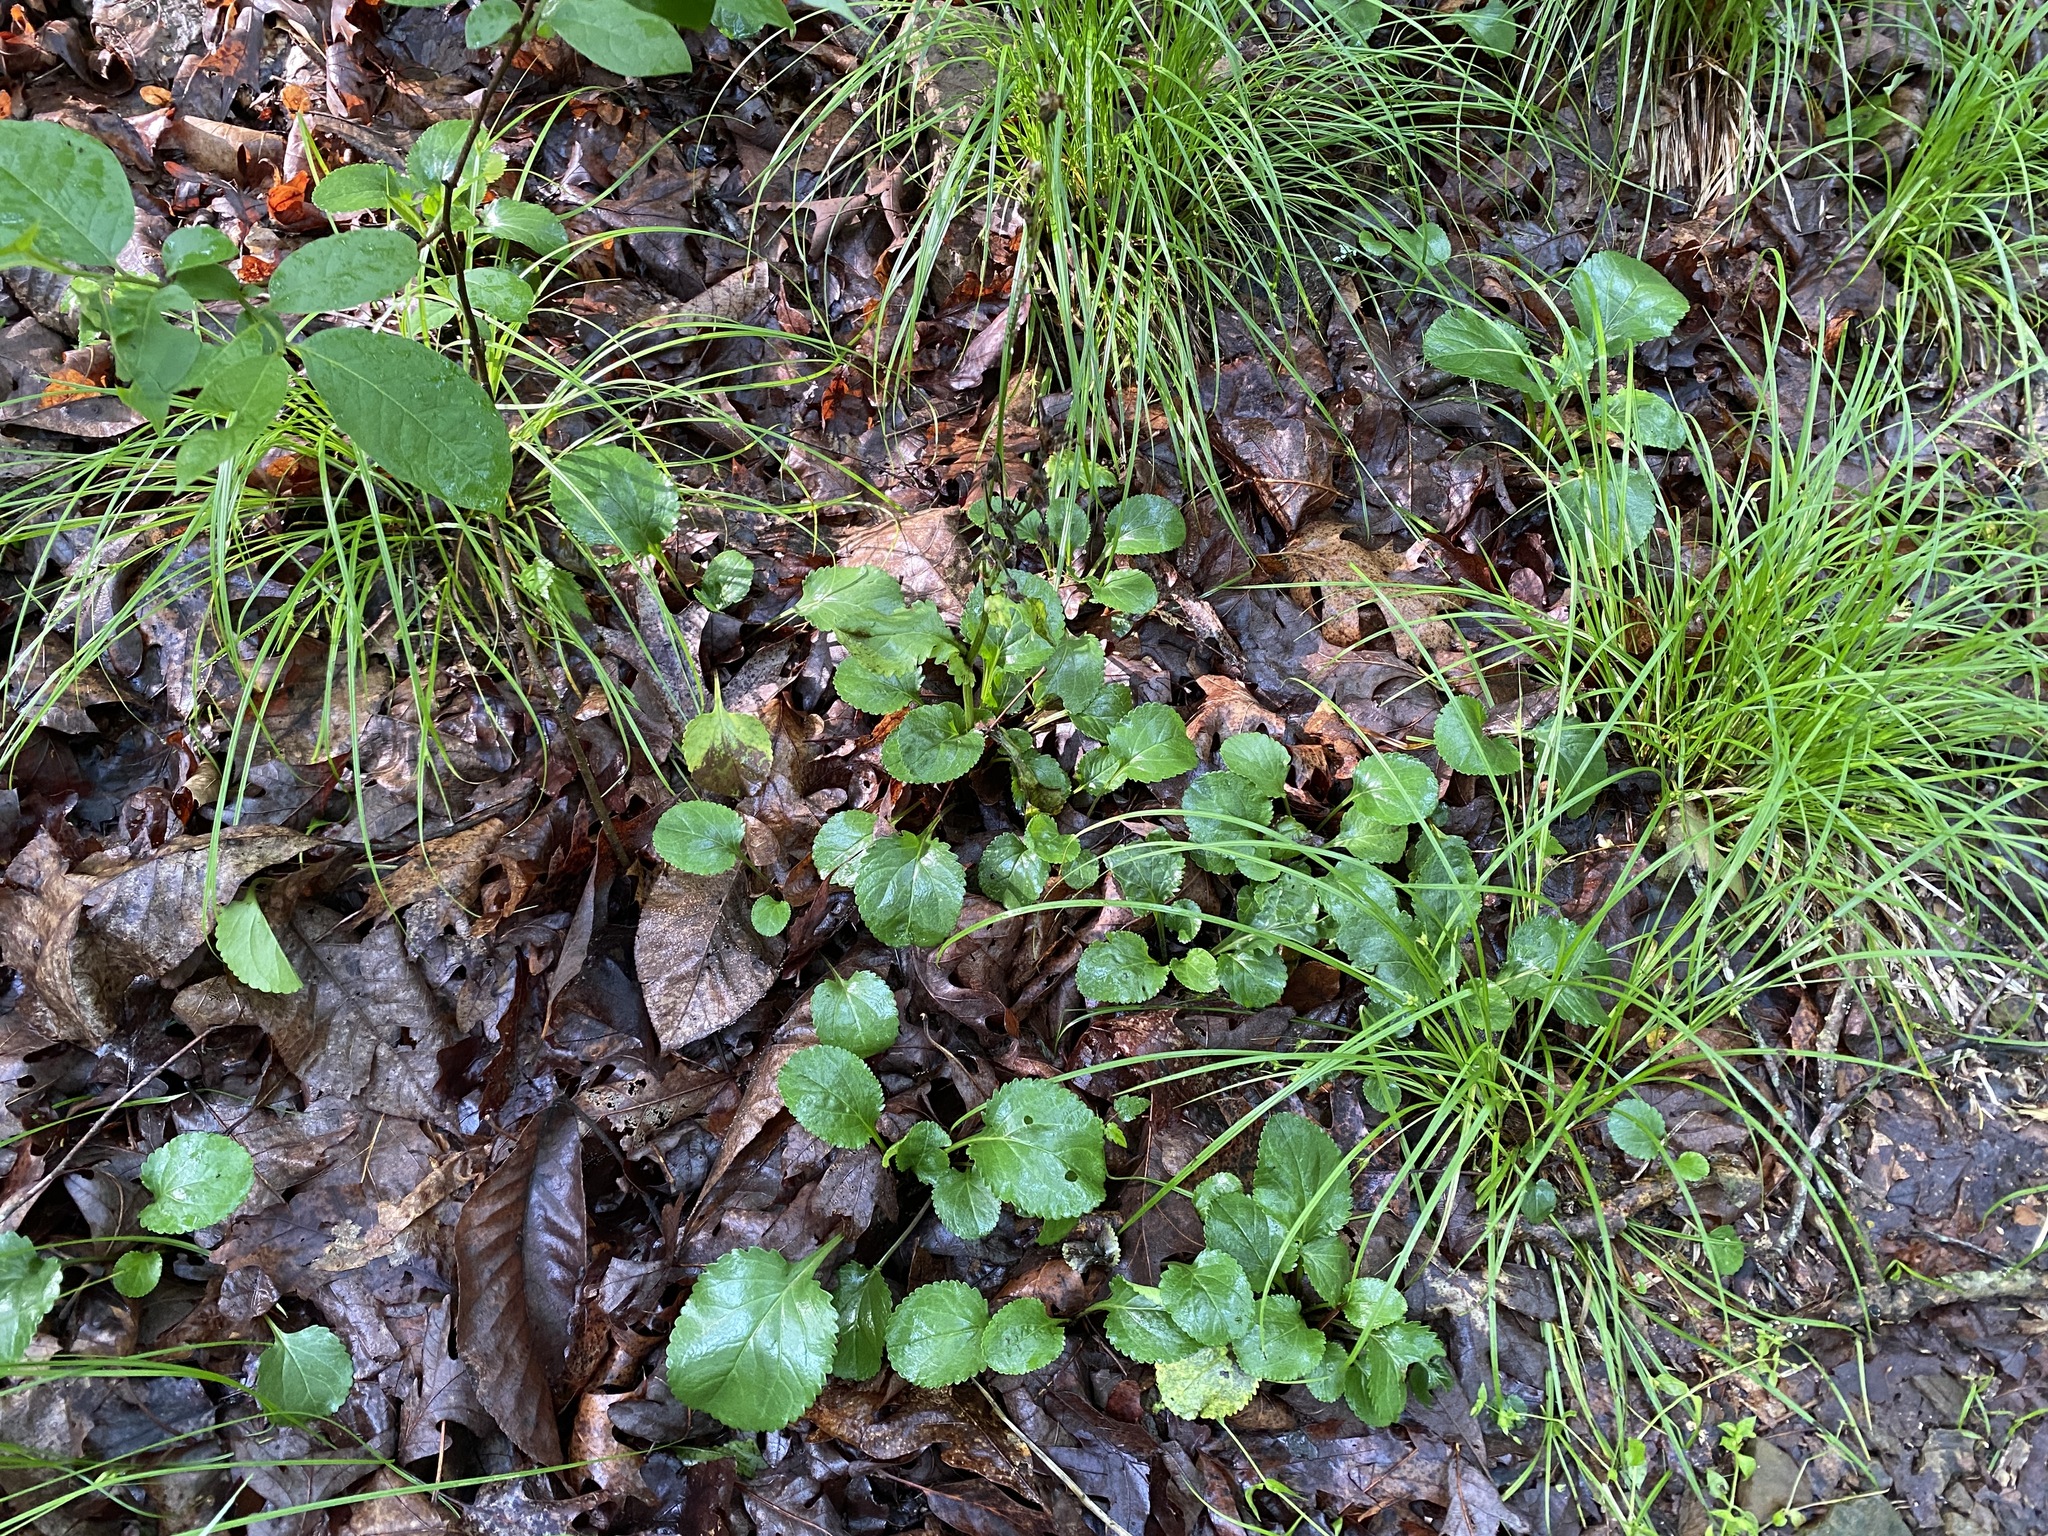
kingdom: Plantae
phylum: Tracheophyta
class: Magnoliopsida
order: Asterales
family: Asteraceae
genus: Packera
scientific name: Packera obovata
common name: Round-leaf ragwort
